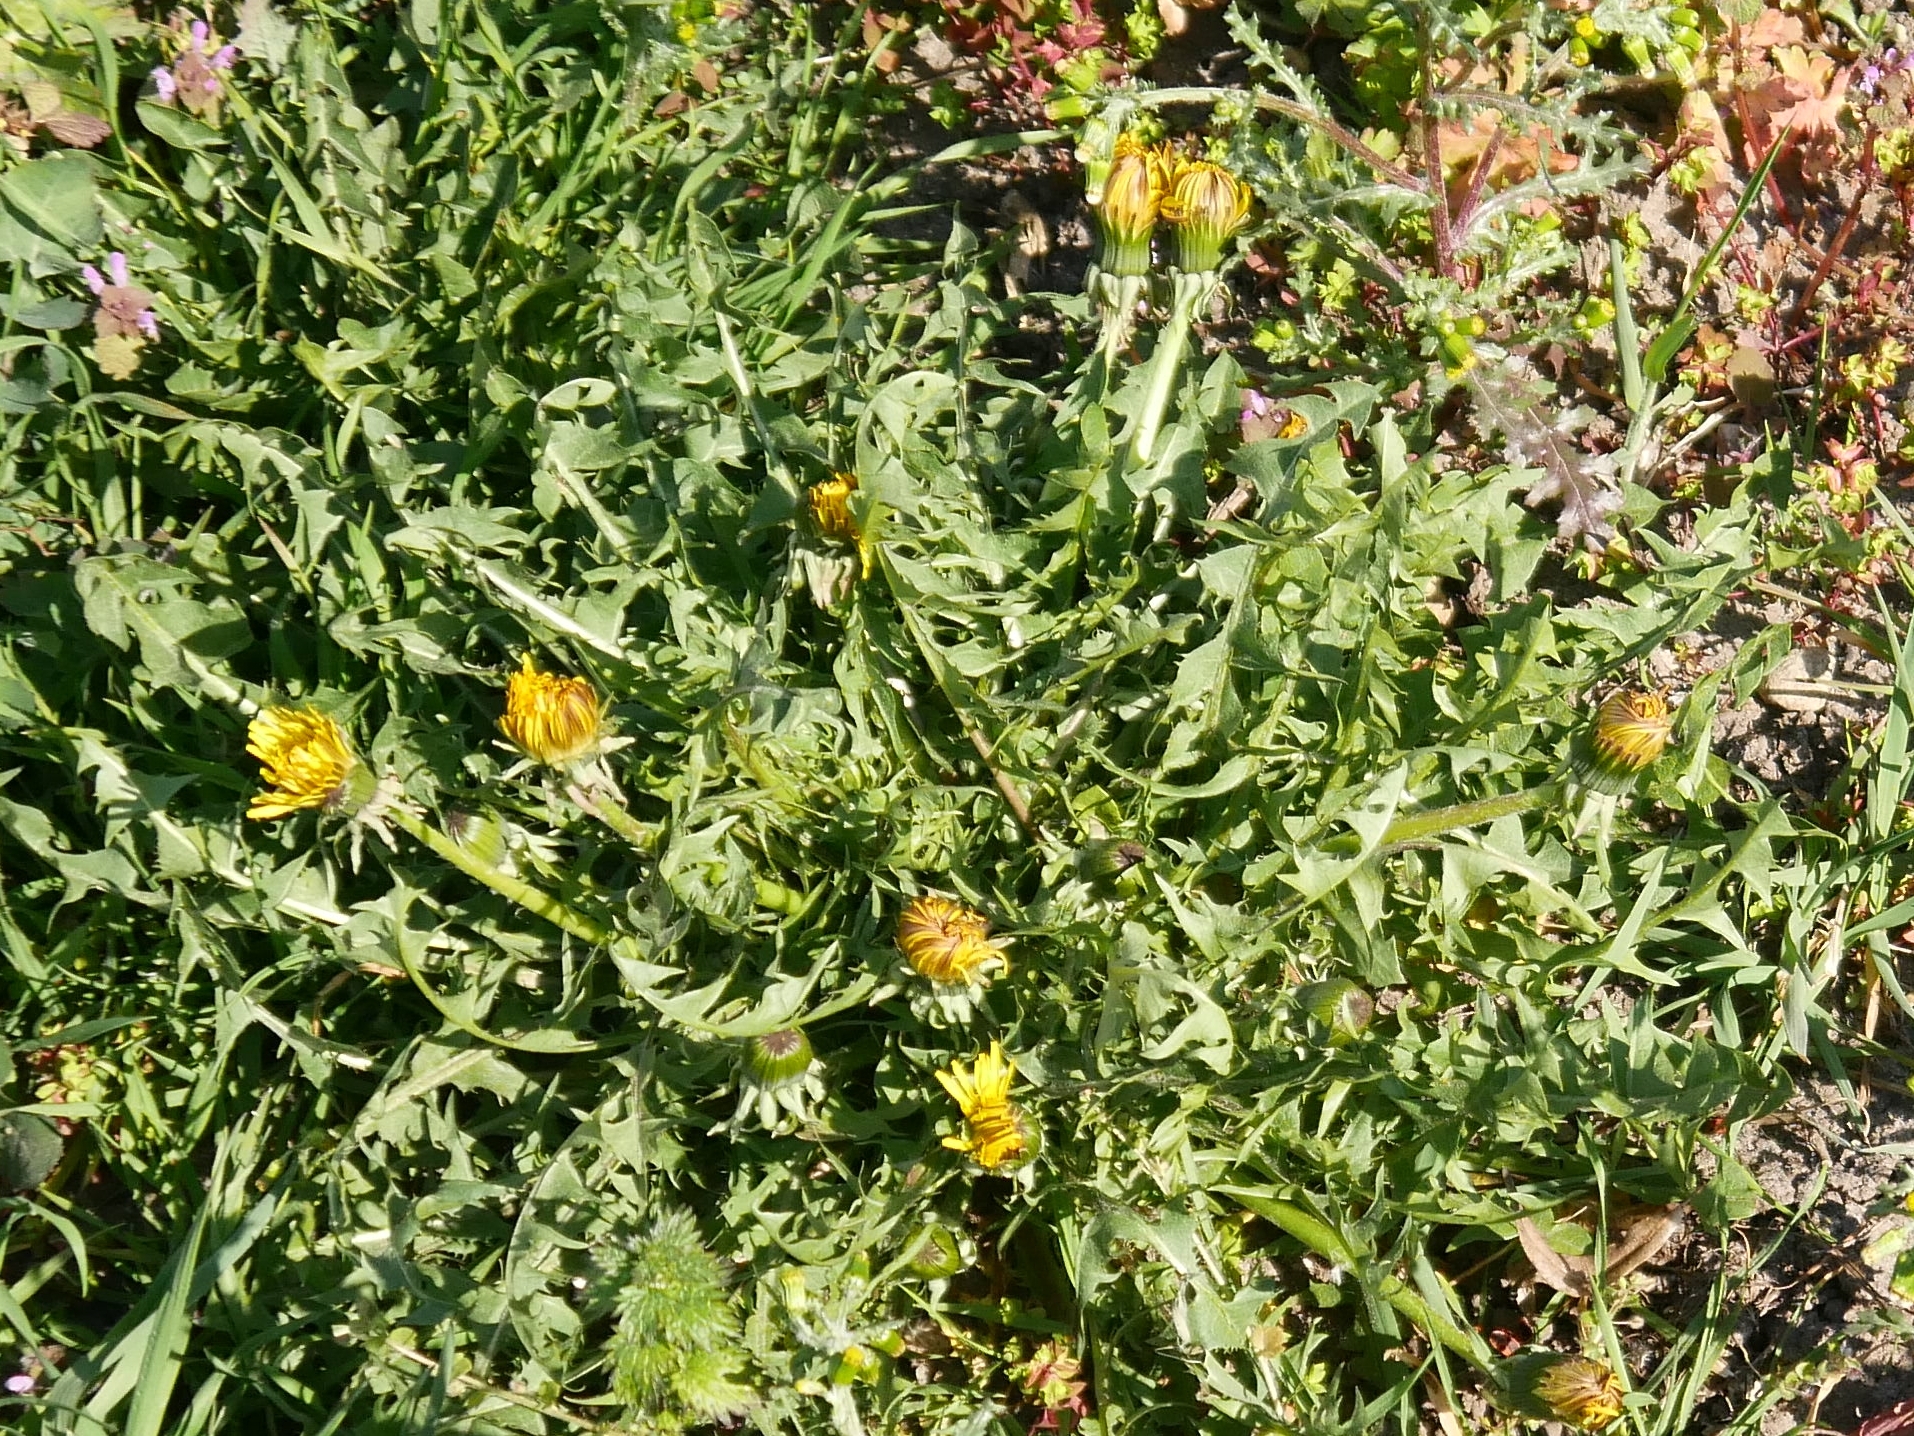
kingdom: Plantae
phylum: Tracheophyta
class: Magnoliopsida
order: Asterales
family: Asteraceae
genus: Taraxacum
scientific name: Taraxacum officinale
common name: Common dandelion
